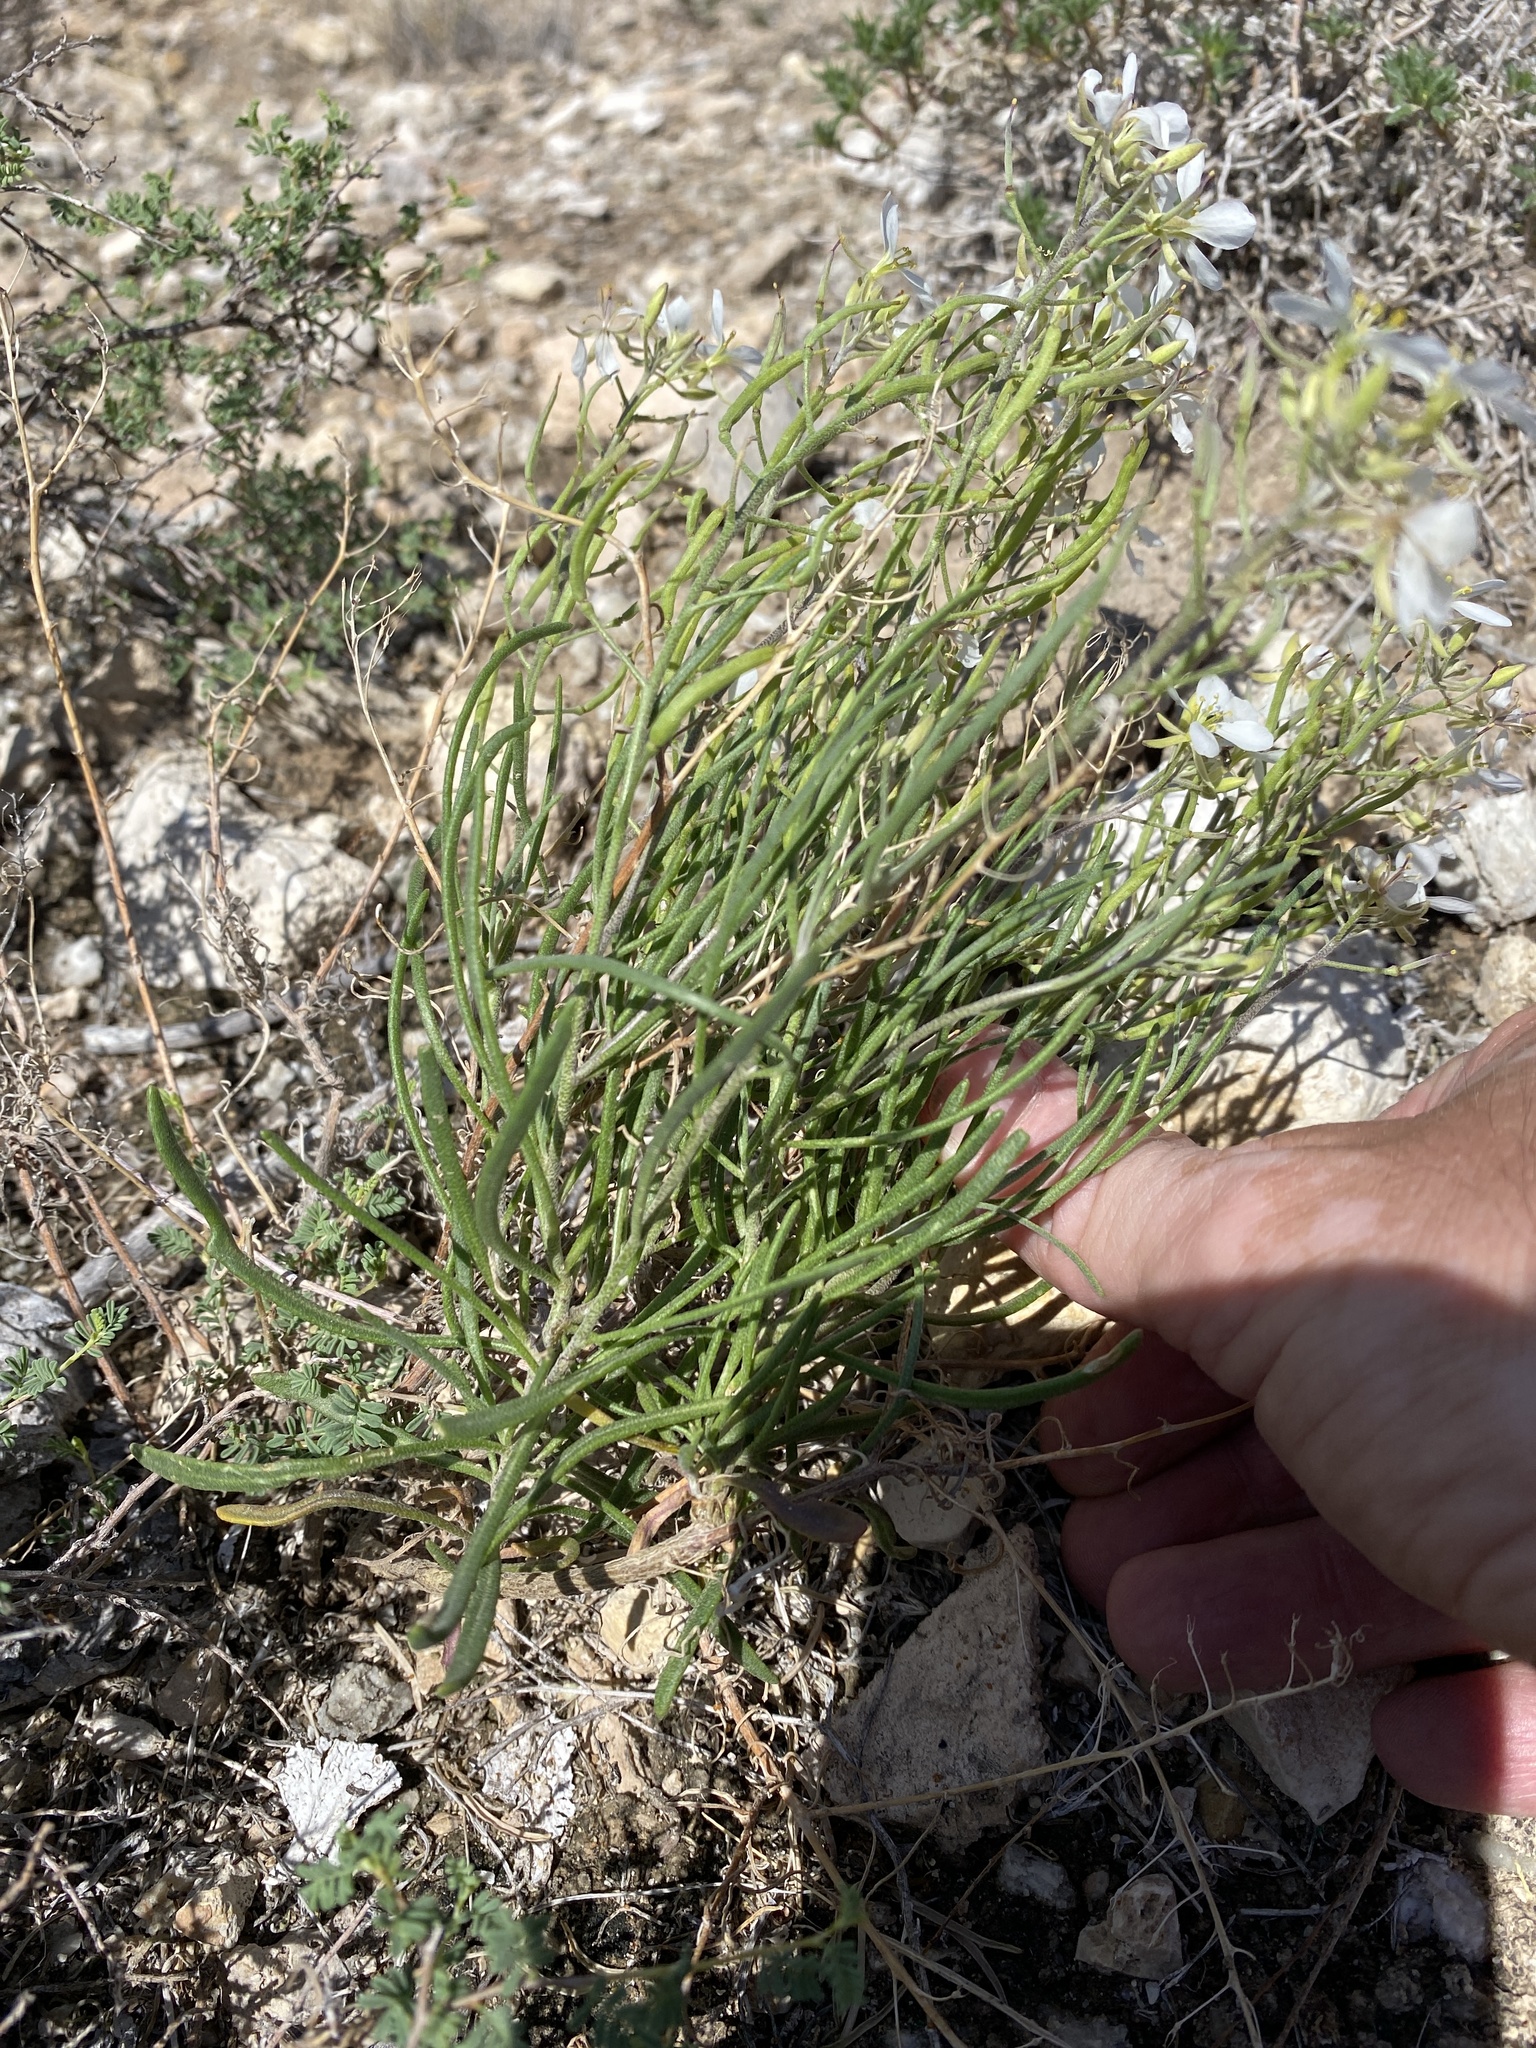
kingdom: Plantae
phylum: Tracheophyta
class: Magnoliopsida
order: Brassicales
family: Brassicaceae
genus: Nerisyrenia
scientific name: Nerisyrenia linearifolia
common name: White sands fan mustard
